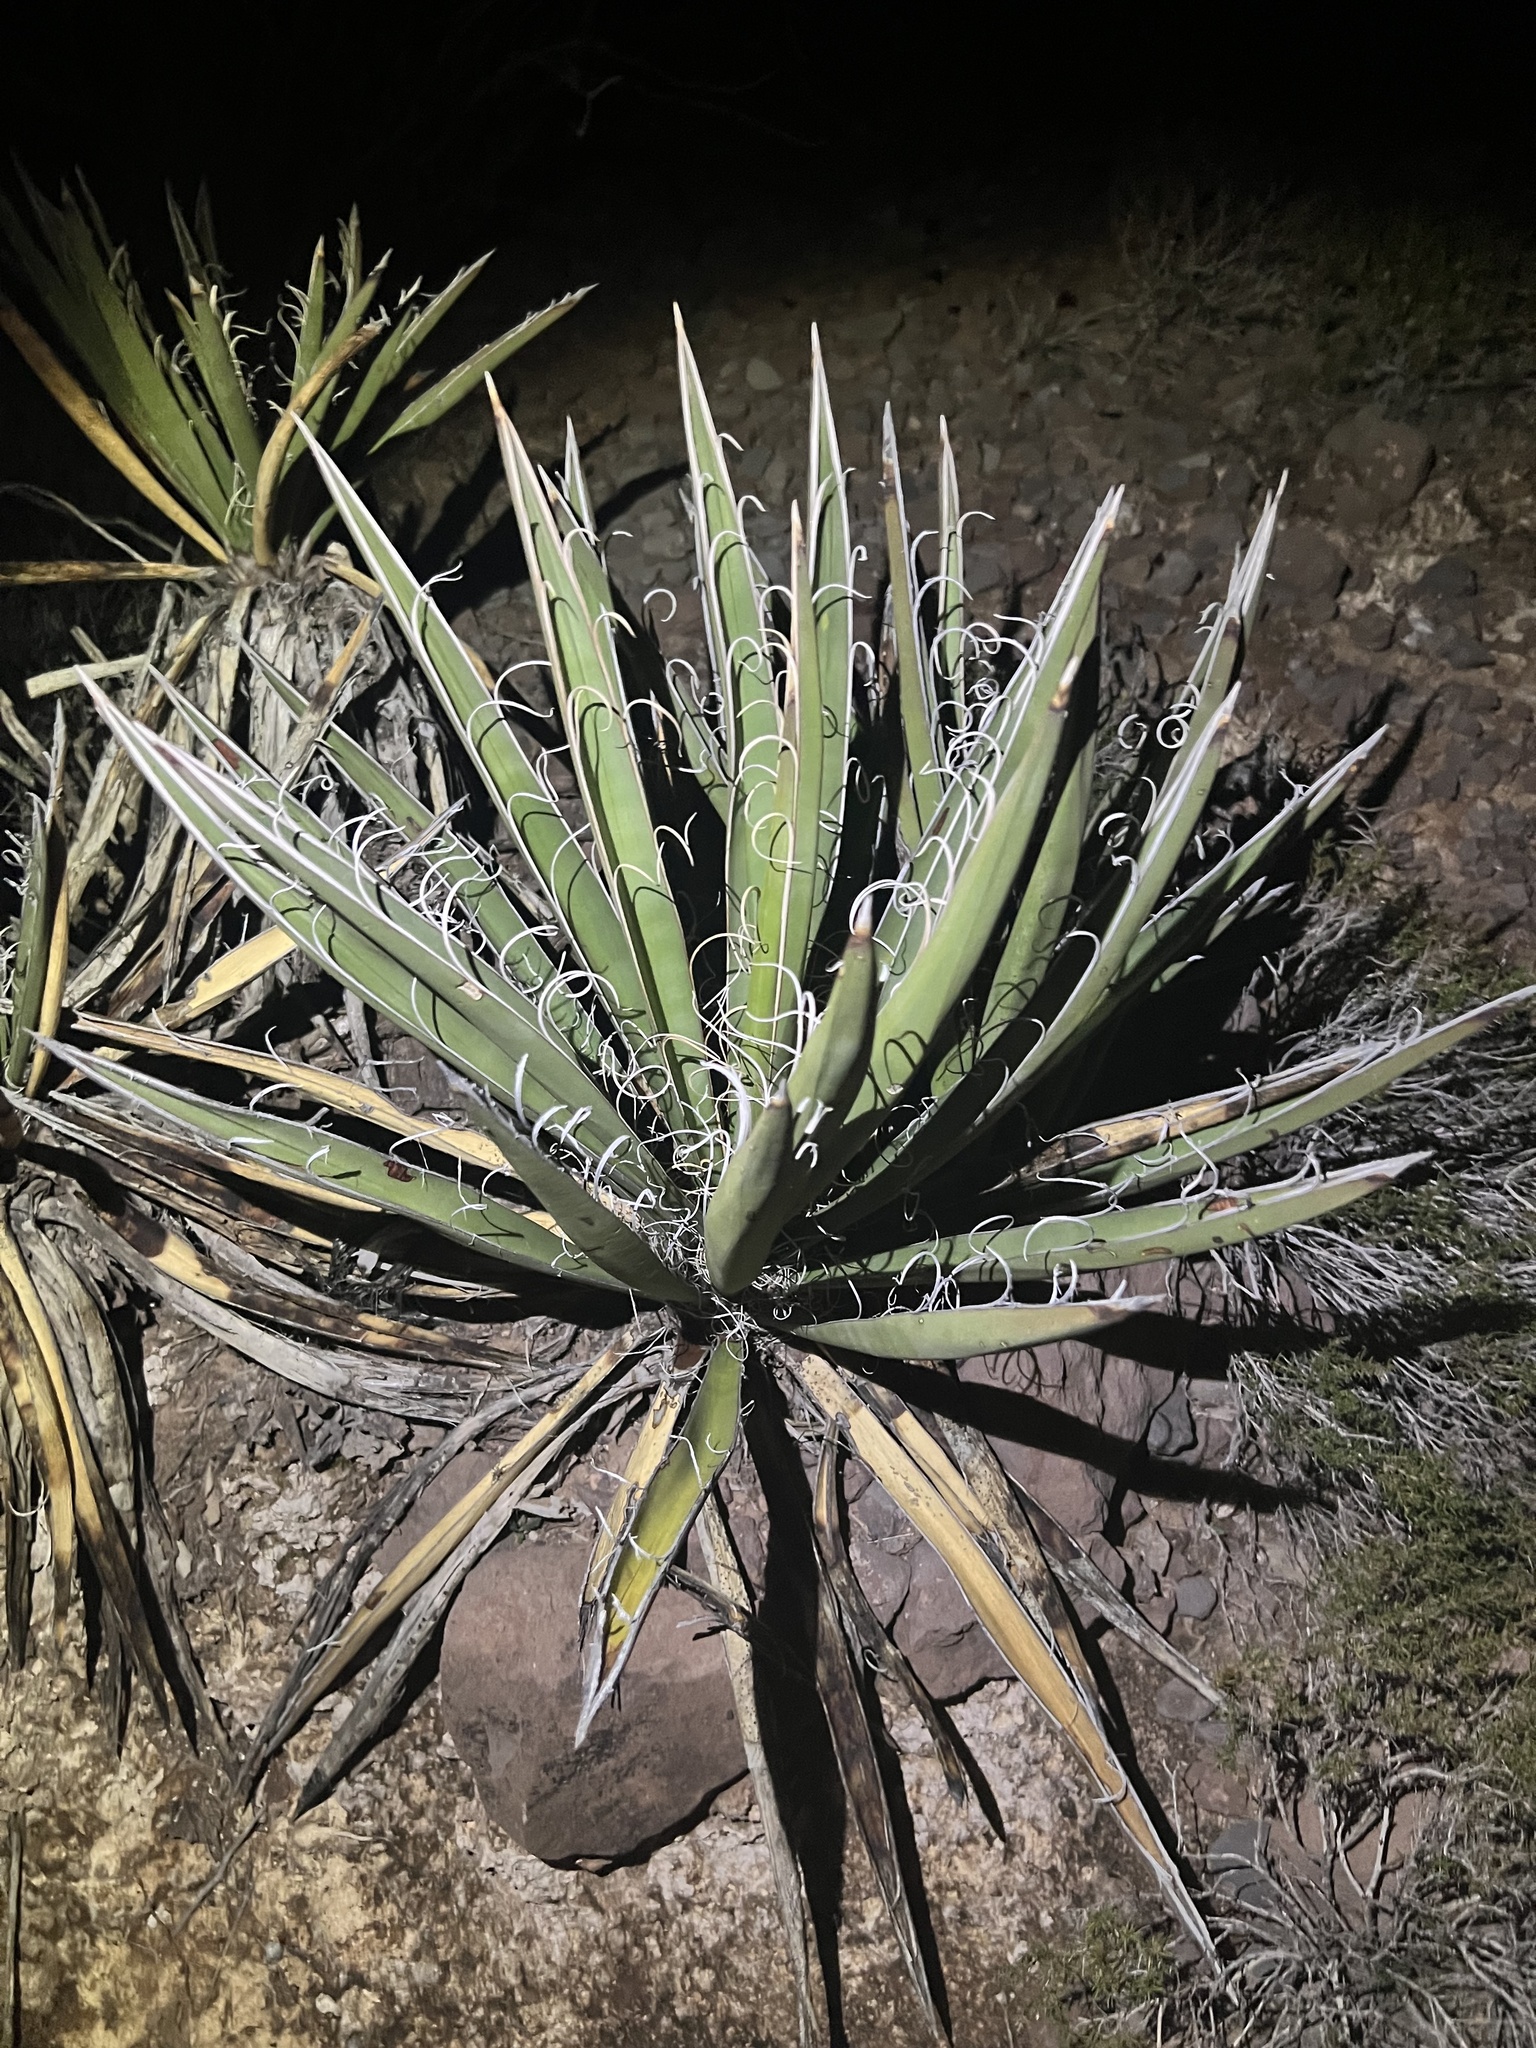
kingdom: Plantae
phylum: Tracheophyta
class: Liliopsida
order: Asparagales
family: Asparagaceae
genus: Yucca
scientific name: Yucca baccata
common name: Banana yucca
